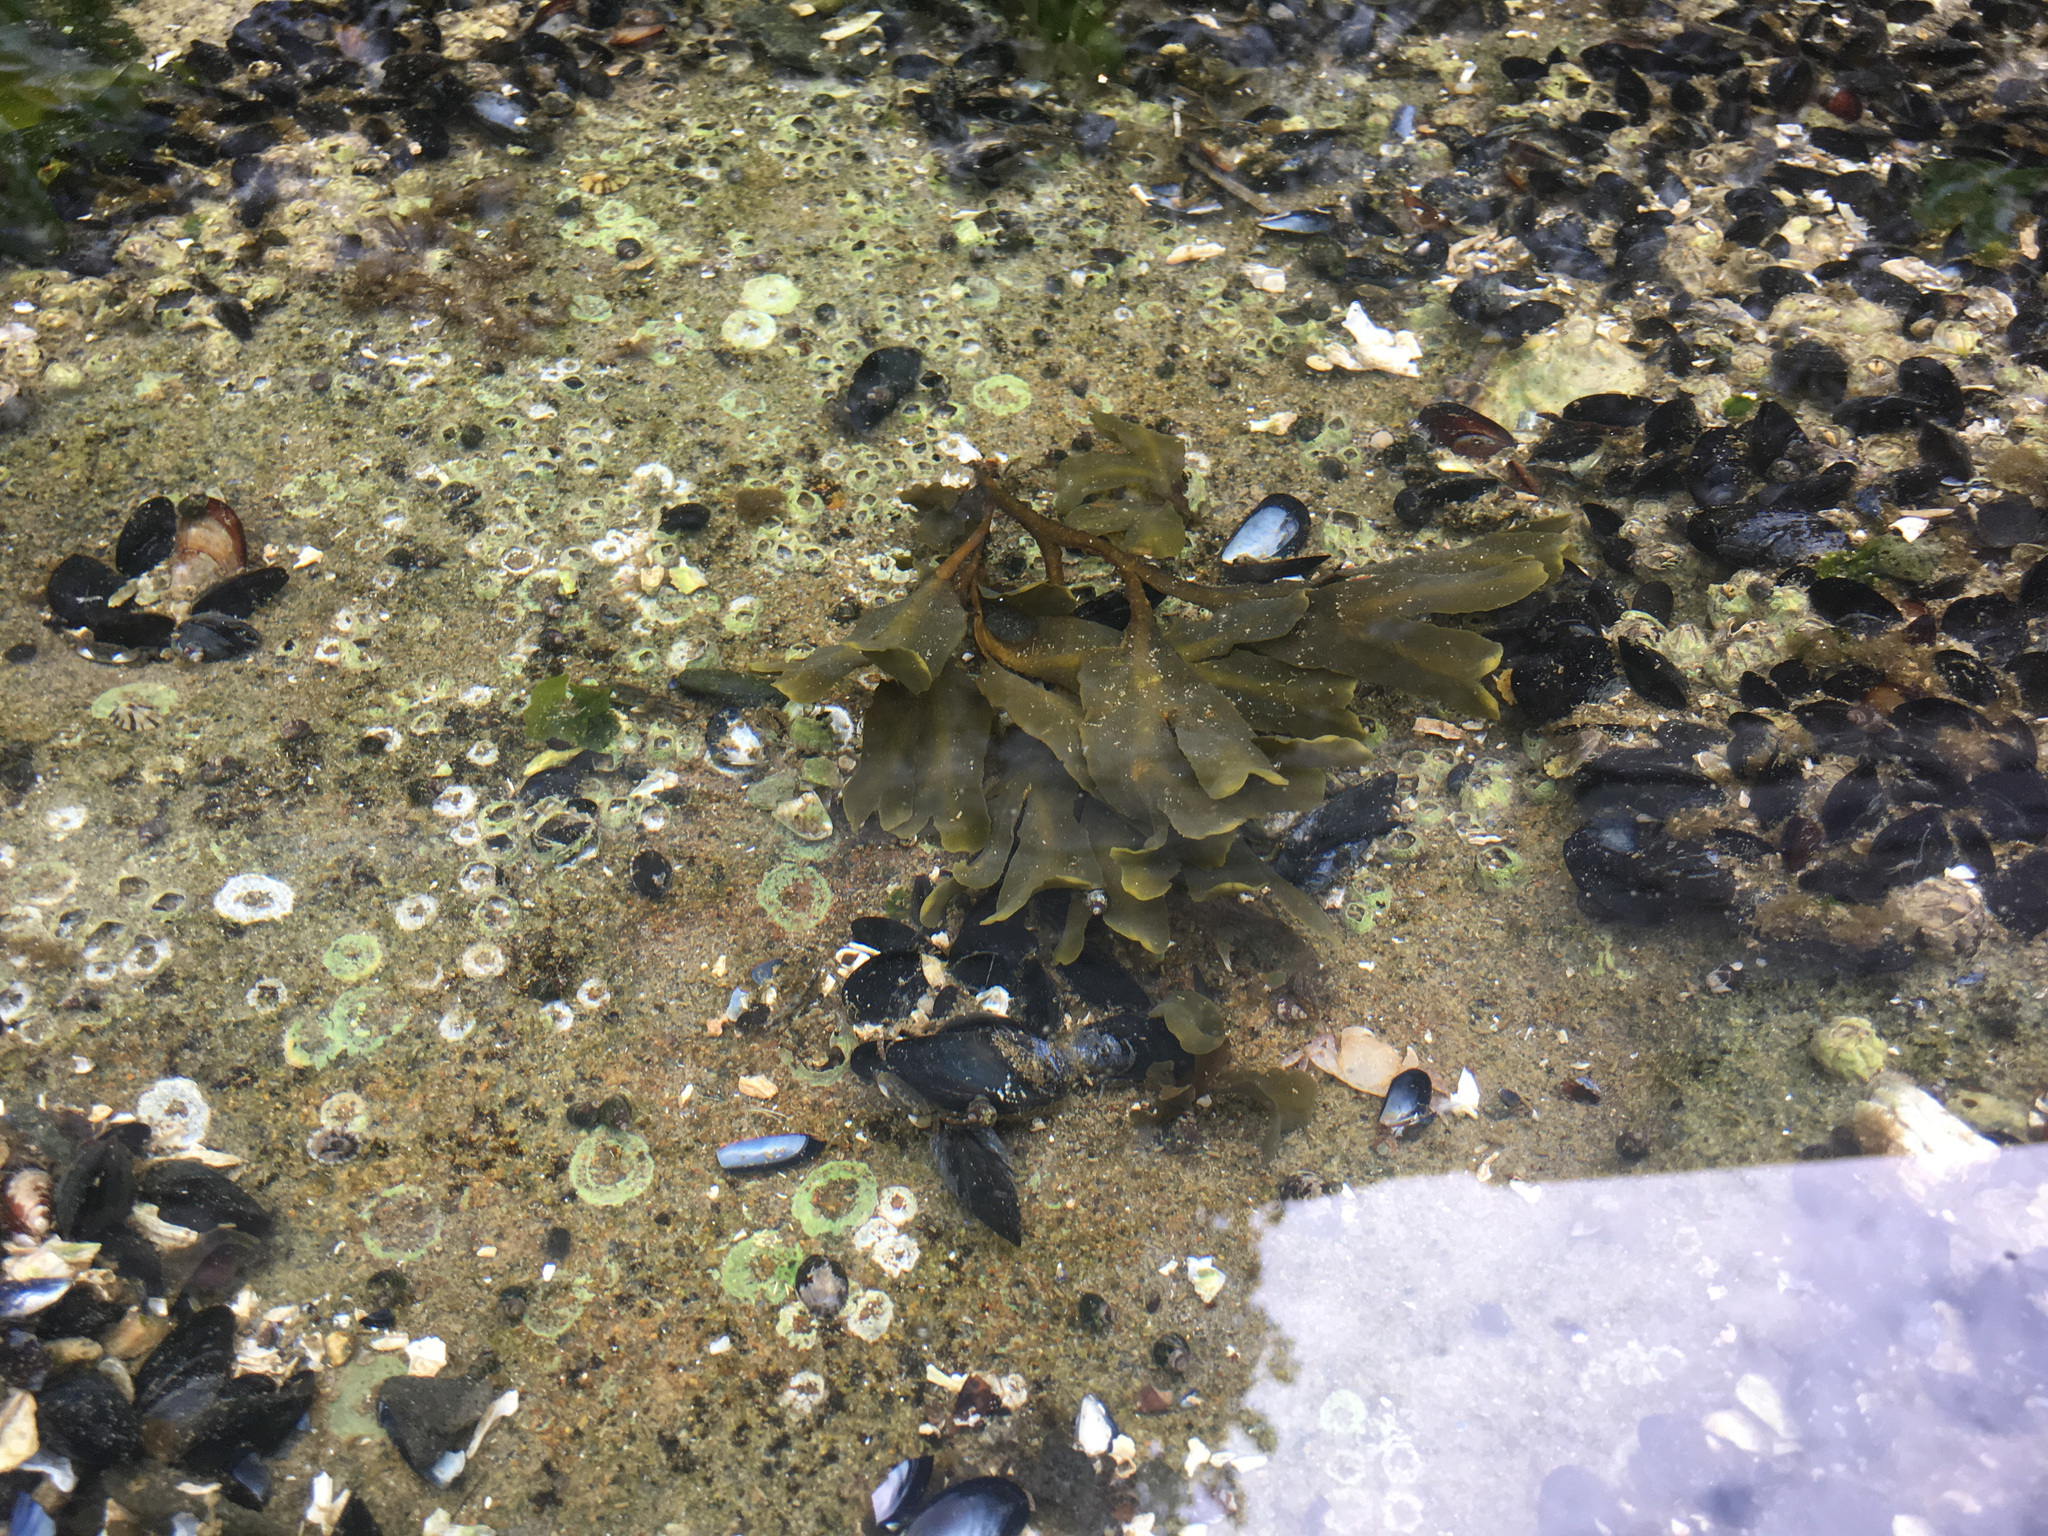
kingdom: Chromista
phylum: Ochrophyta
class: Phaeophyceae
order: Fucales
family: Fucaceae
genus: Fucus
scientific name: Fucus distichus
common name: Rockweed
